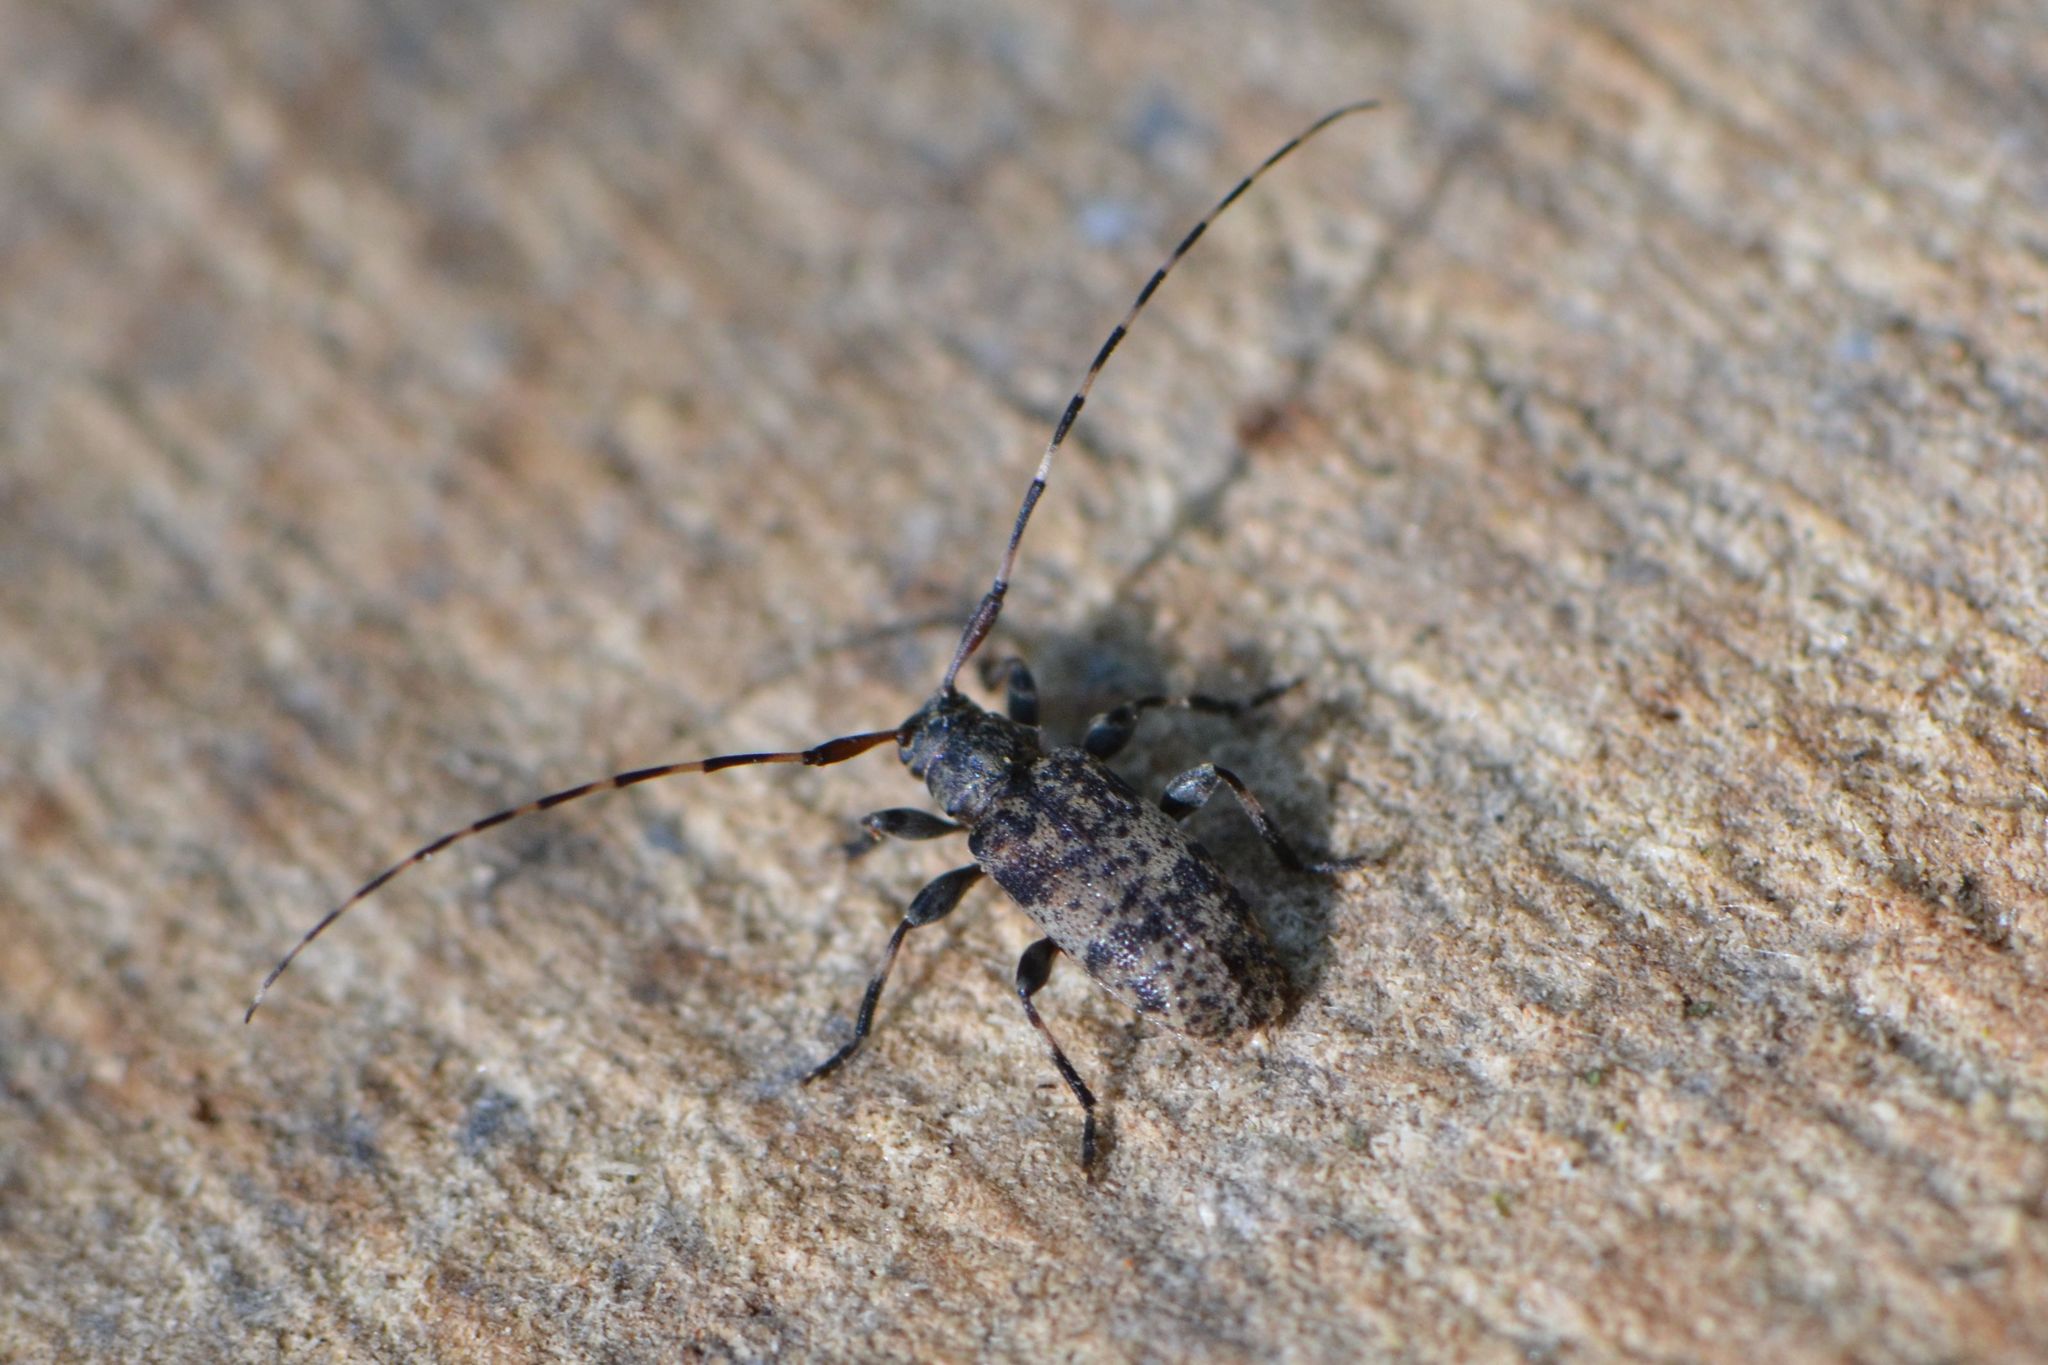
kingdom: Animalia
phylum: Arthropoda
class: Insecta
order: Coleoptera
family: Cerambycidae
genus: Leiopus
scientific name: Leiopus nebulosus
